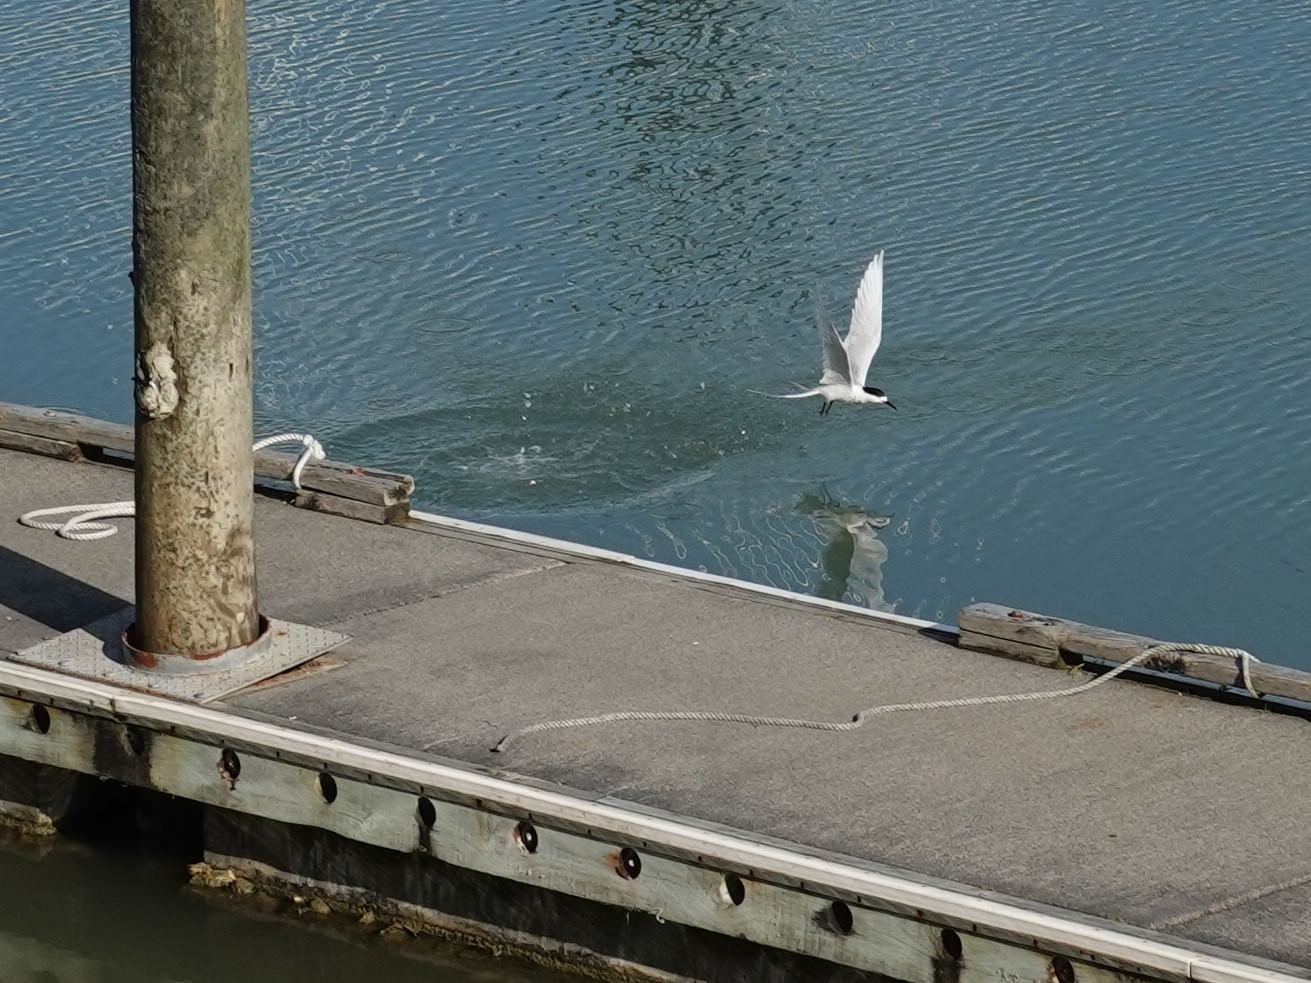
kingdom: Animalia
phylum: Chordata
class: Aves
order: Charadriiformes
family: Laridae
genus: Sterna
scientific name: Sterna striata
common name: White-fronted tern
